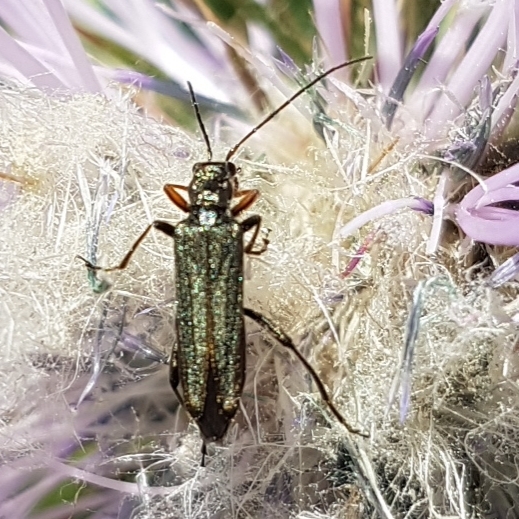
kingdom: Animalia
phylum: Arthropoda
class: Insecta
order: Coleoptera
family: Oedemeridae
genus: Oedemera
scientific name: Oedemera flavipes
